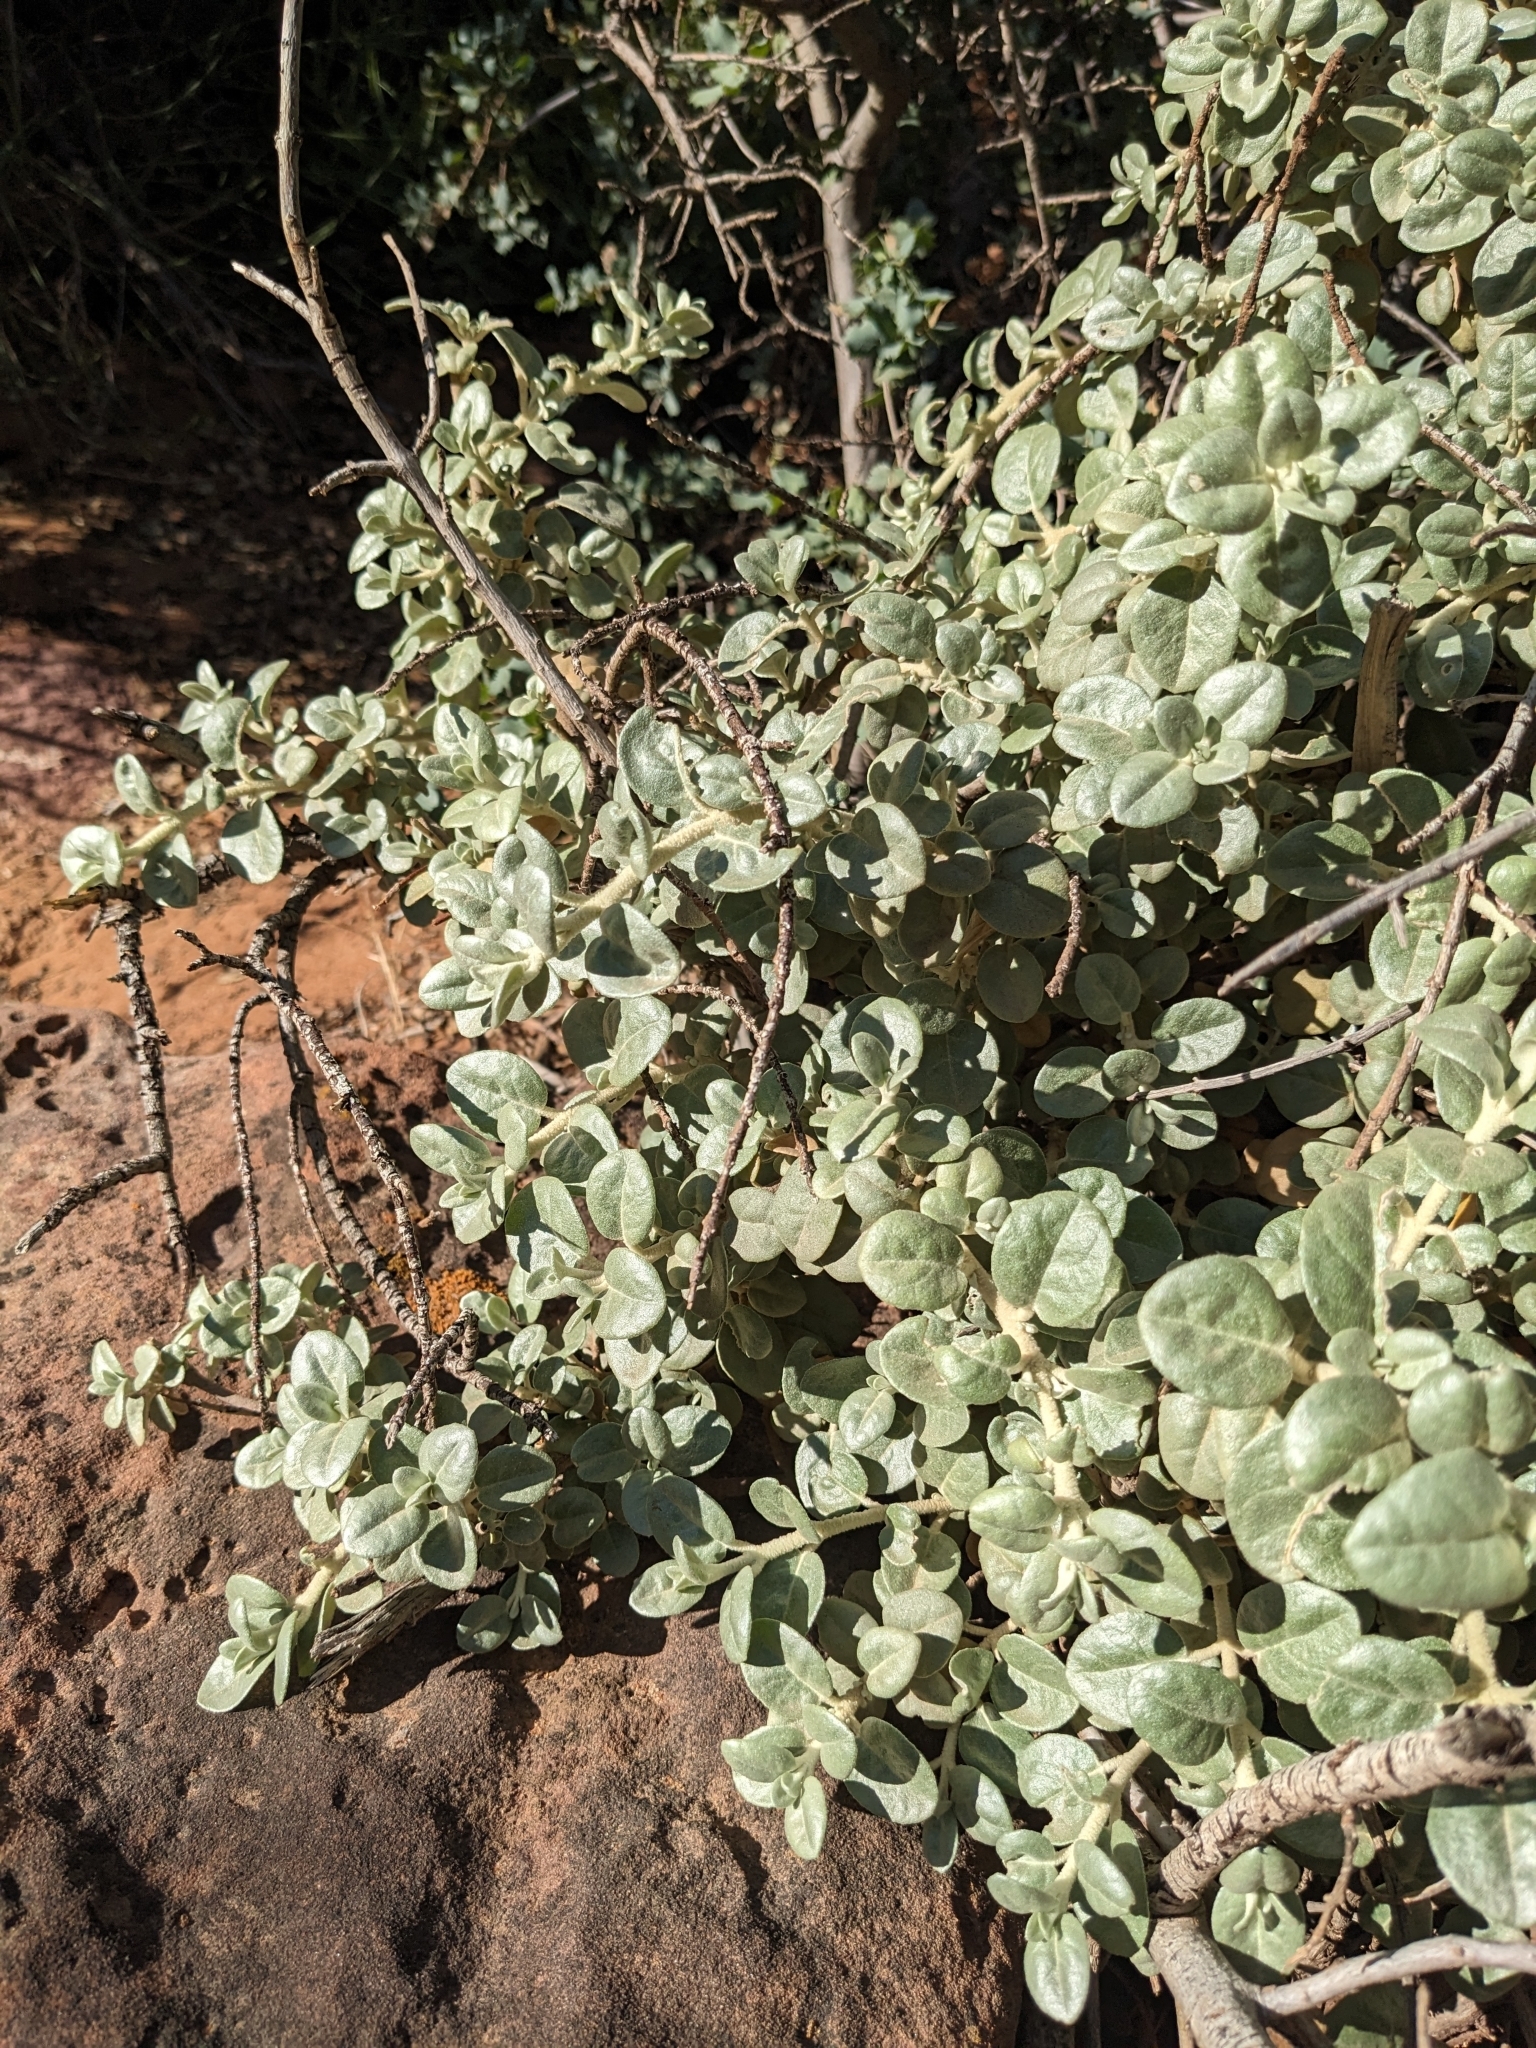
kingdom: Plantae
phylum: Tracheophyta
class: Magnoliopsida
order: Rosales
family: Elaeagnaceae
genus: Shepherdia
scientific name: Shepherdia rotundifolia
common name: Silverscale
